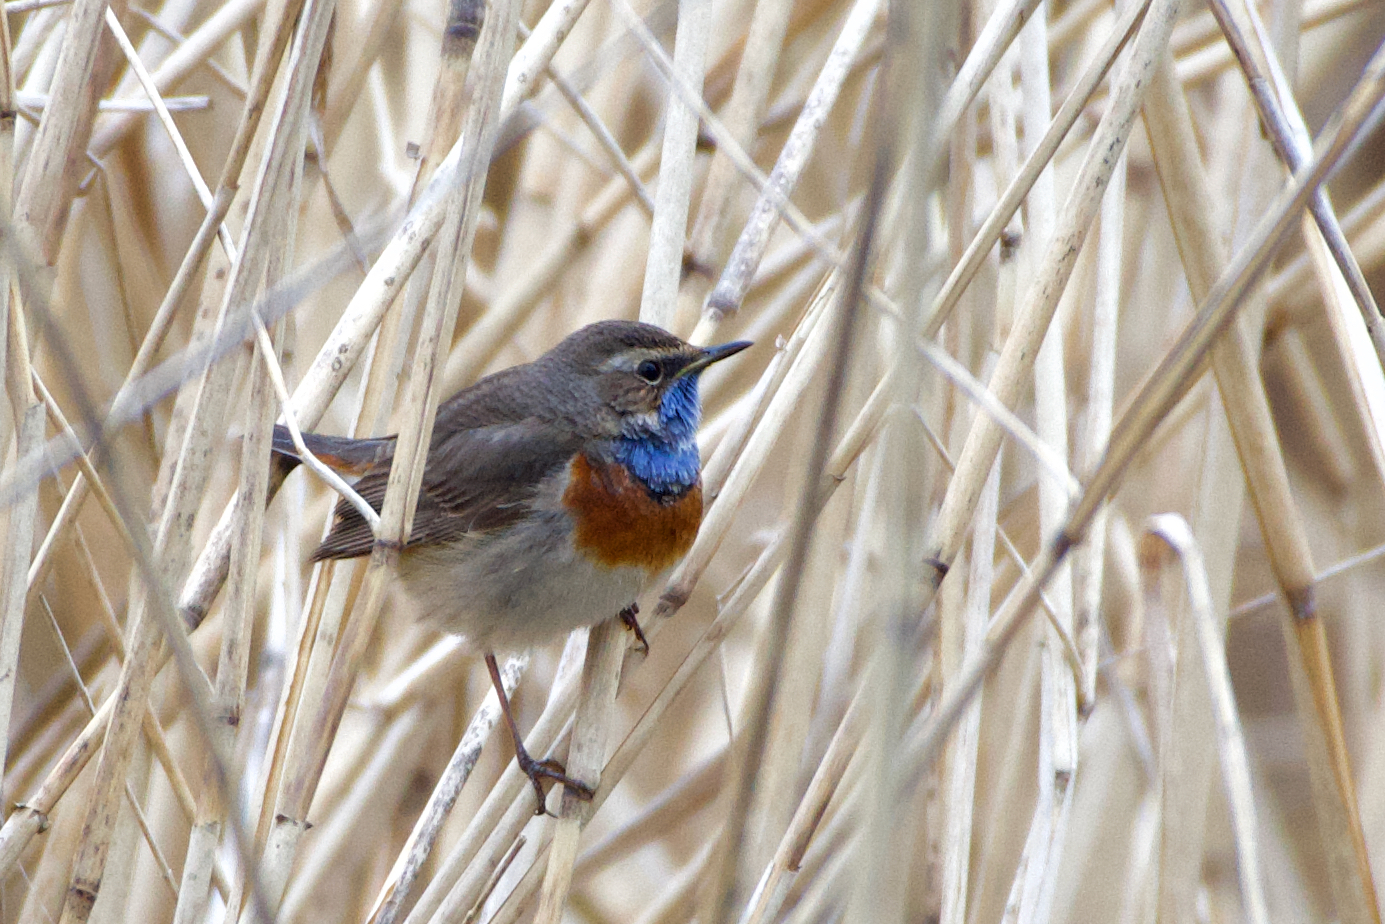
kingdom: Animalia
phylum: Chordata
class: Aves
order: Passeriformes
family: Muscicapidae
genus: Luscinia
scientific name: Luscinia svecica
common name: Bluethroat
